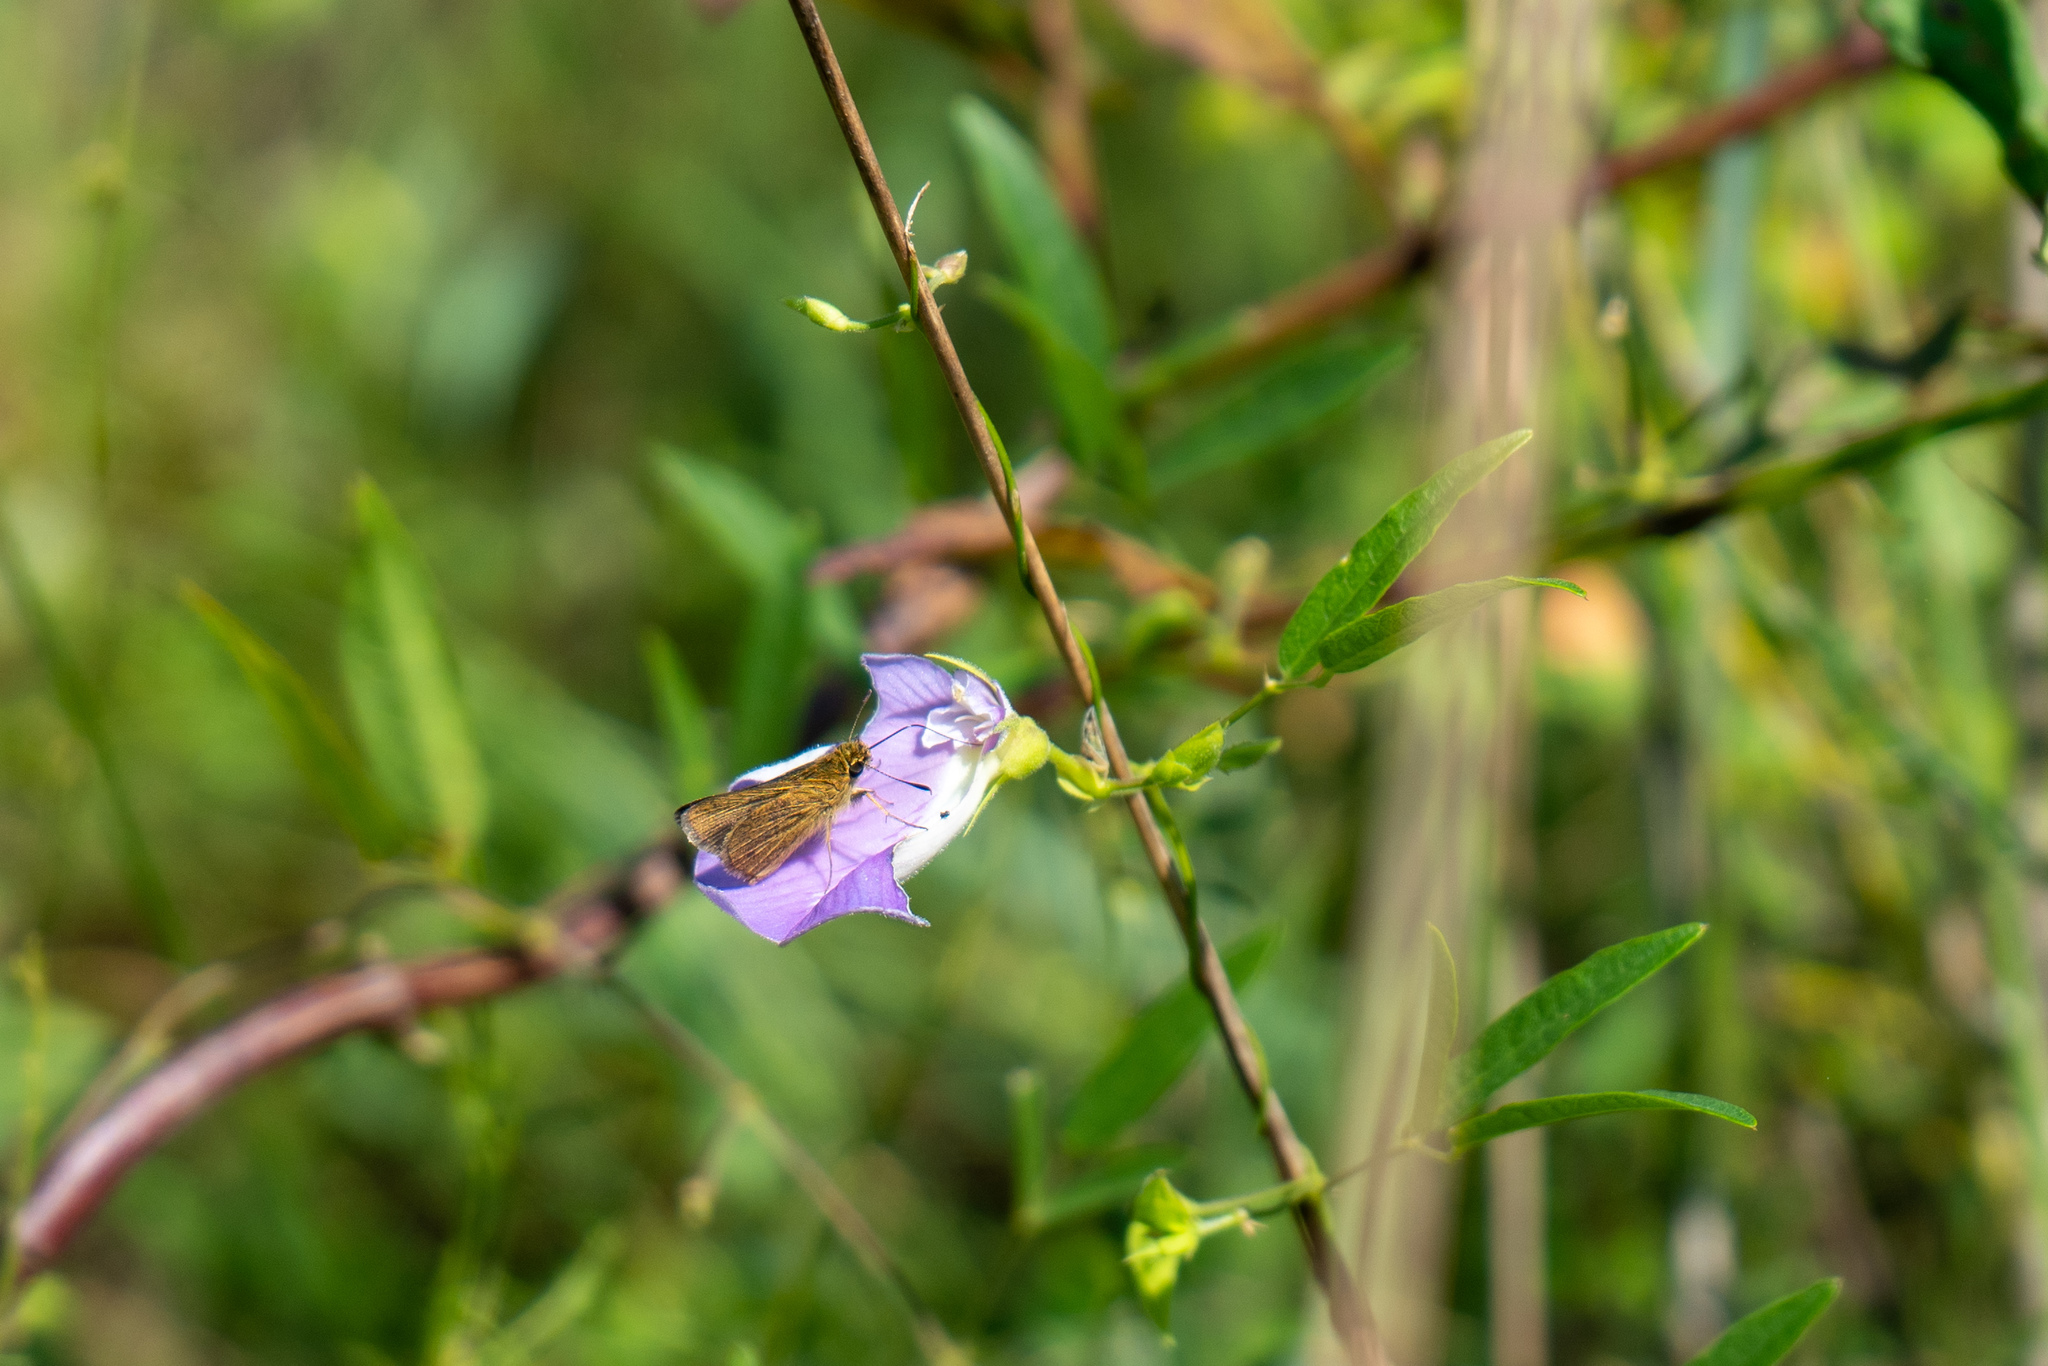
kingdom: Animalia
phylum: Arthropoda
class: Insecta
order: Lepidoptera
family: Hesperiidae
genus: Nastra
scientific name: Nastra lherminier
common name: Swarthy skipper
